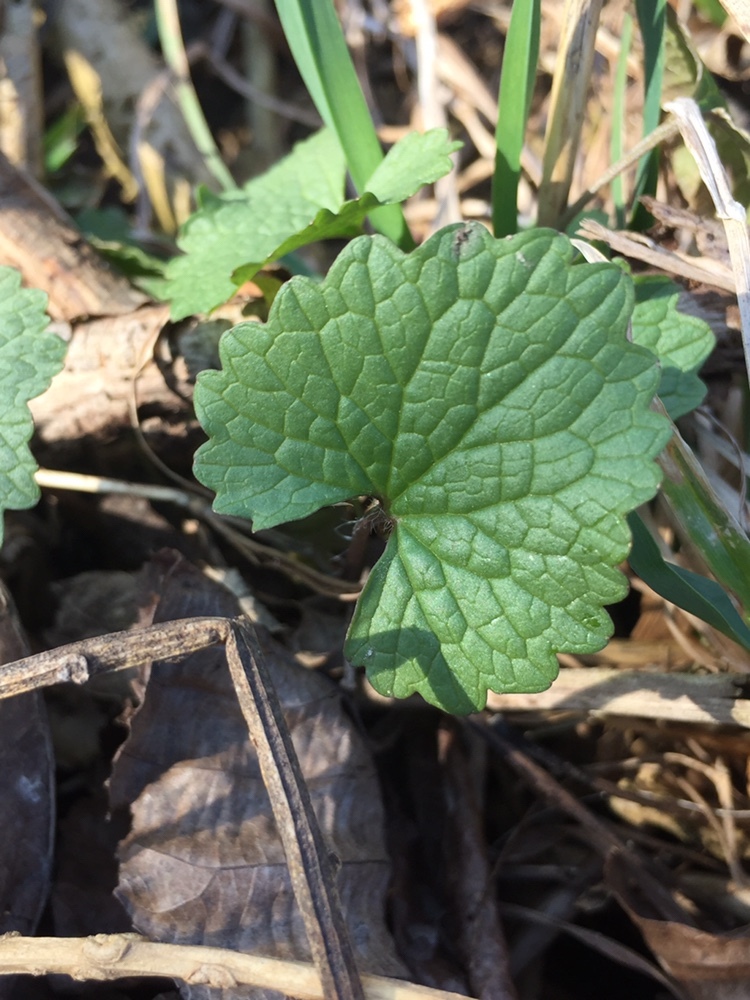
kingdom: Plantae
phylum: Tracheophyta
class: Magnoliopsida
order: Brassicales
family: Brassicaceae
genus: Alliaria
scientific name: Alliaria petiolata
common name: Garlic mustard
